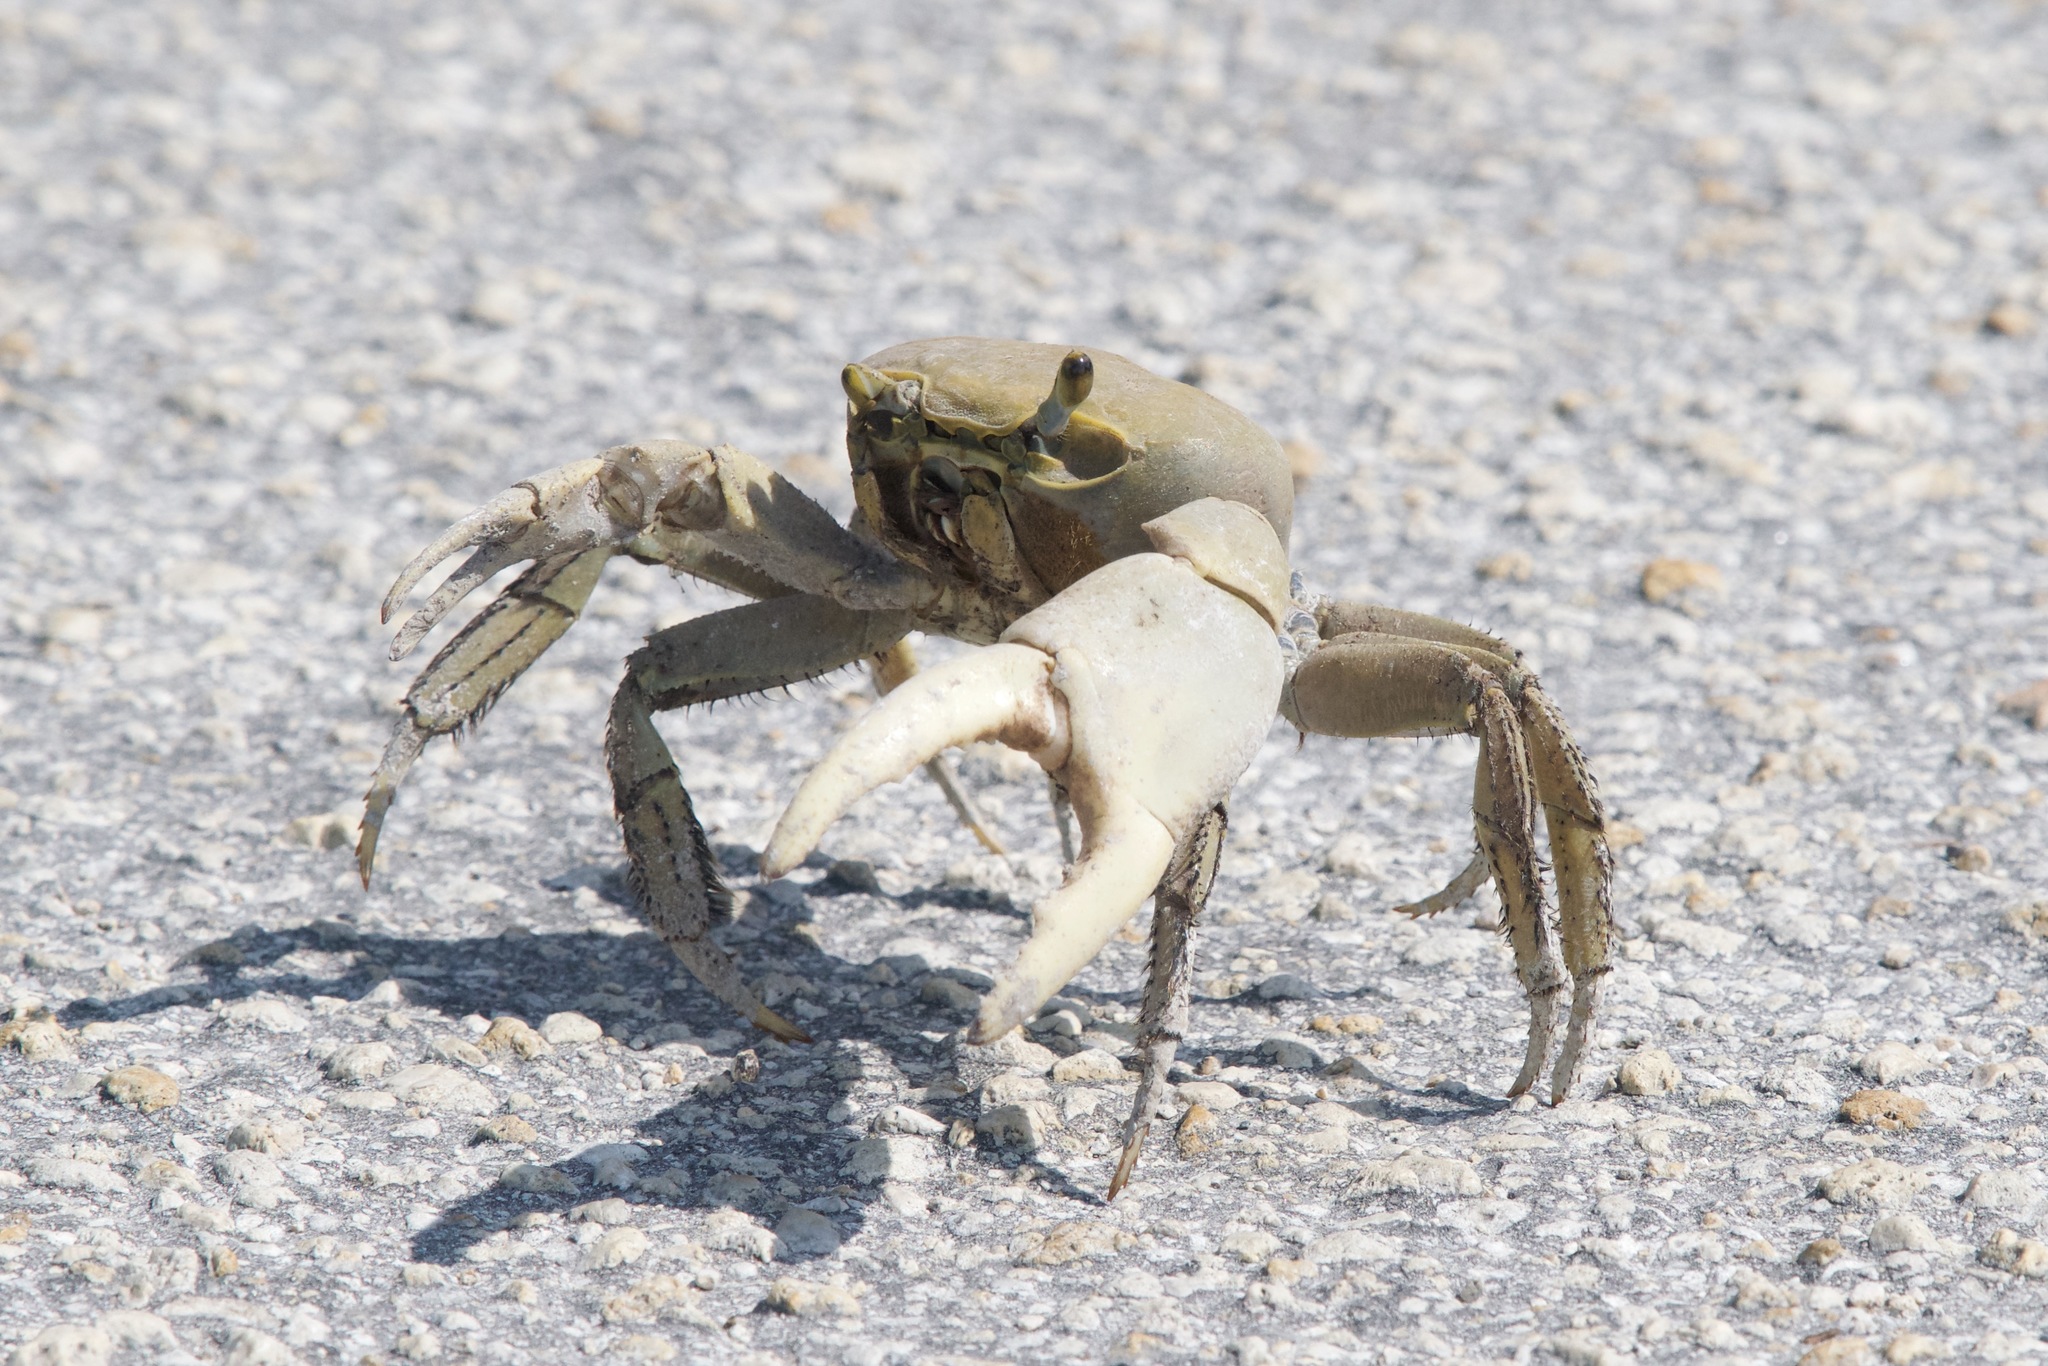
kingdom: Animalia
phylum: Arthropoda
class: Malacostraca
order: Decapoda
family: Gecarcinidae
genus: Cardisoma
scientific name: Cardisoma guanhumi
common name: Great land crab
